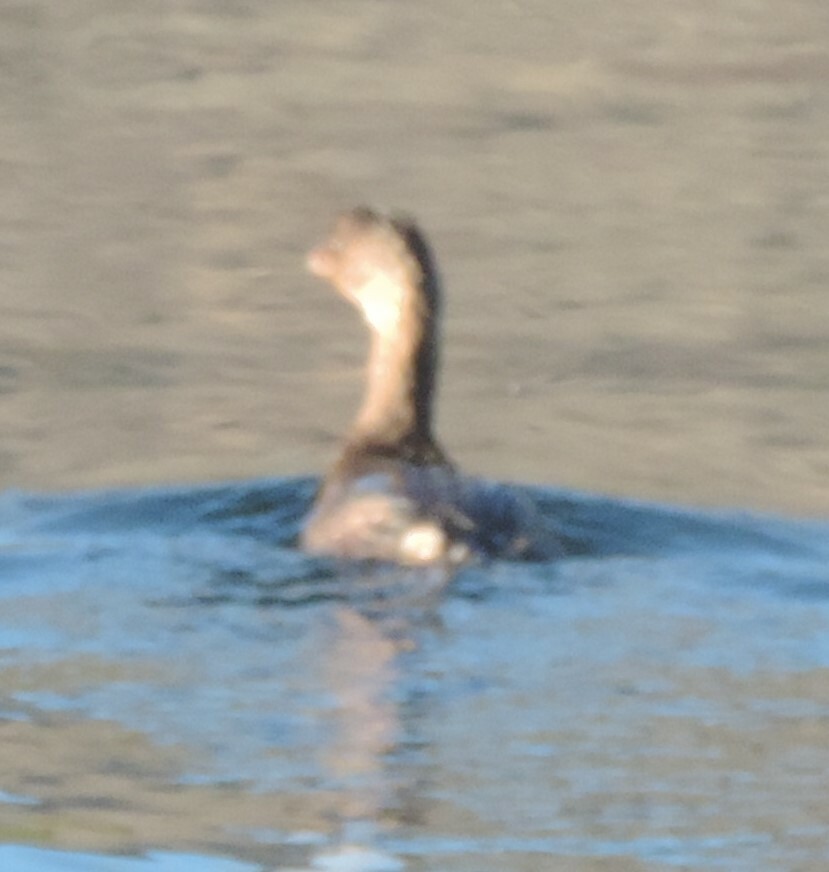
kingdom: Animalia
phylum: Chordata
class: Aves
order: Podicipediformes
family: Podicipedidae
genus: Podilymbus
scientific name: Podilymbus podiceps
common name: Pied-billed grebe
